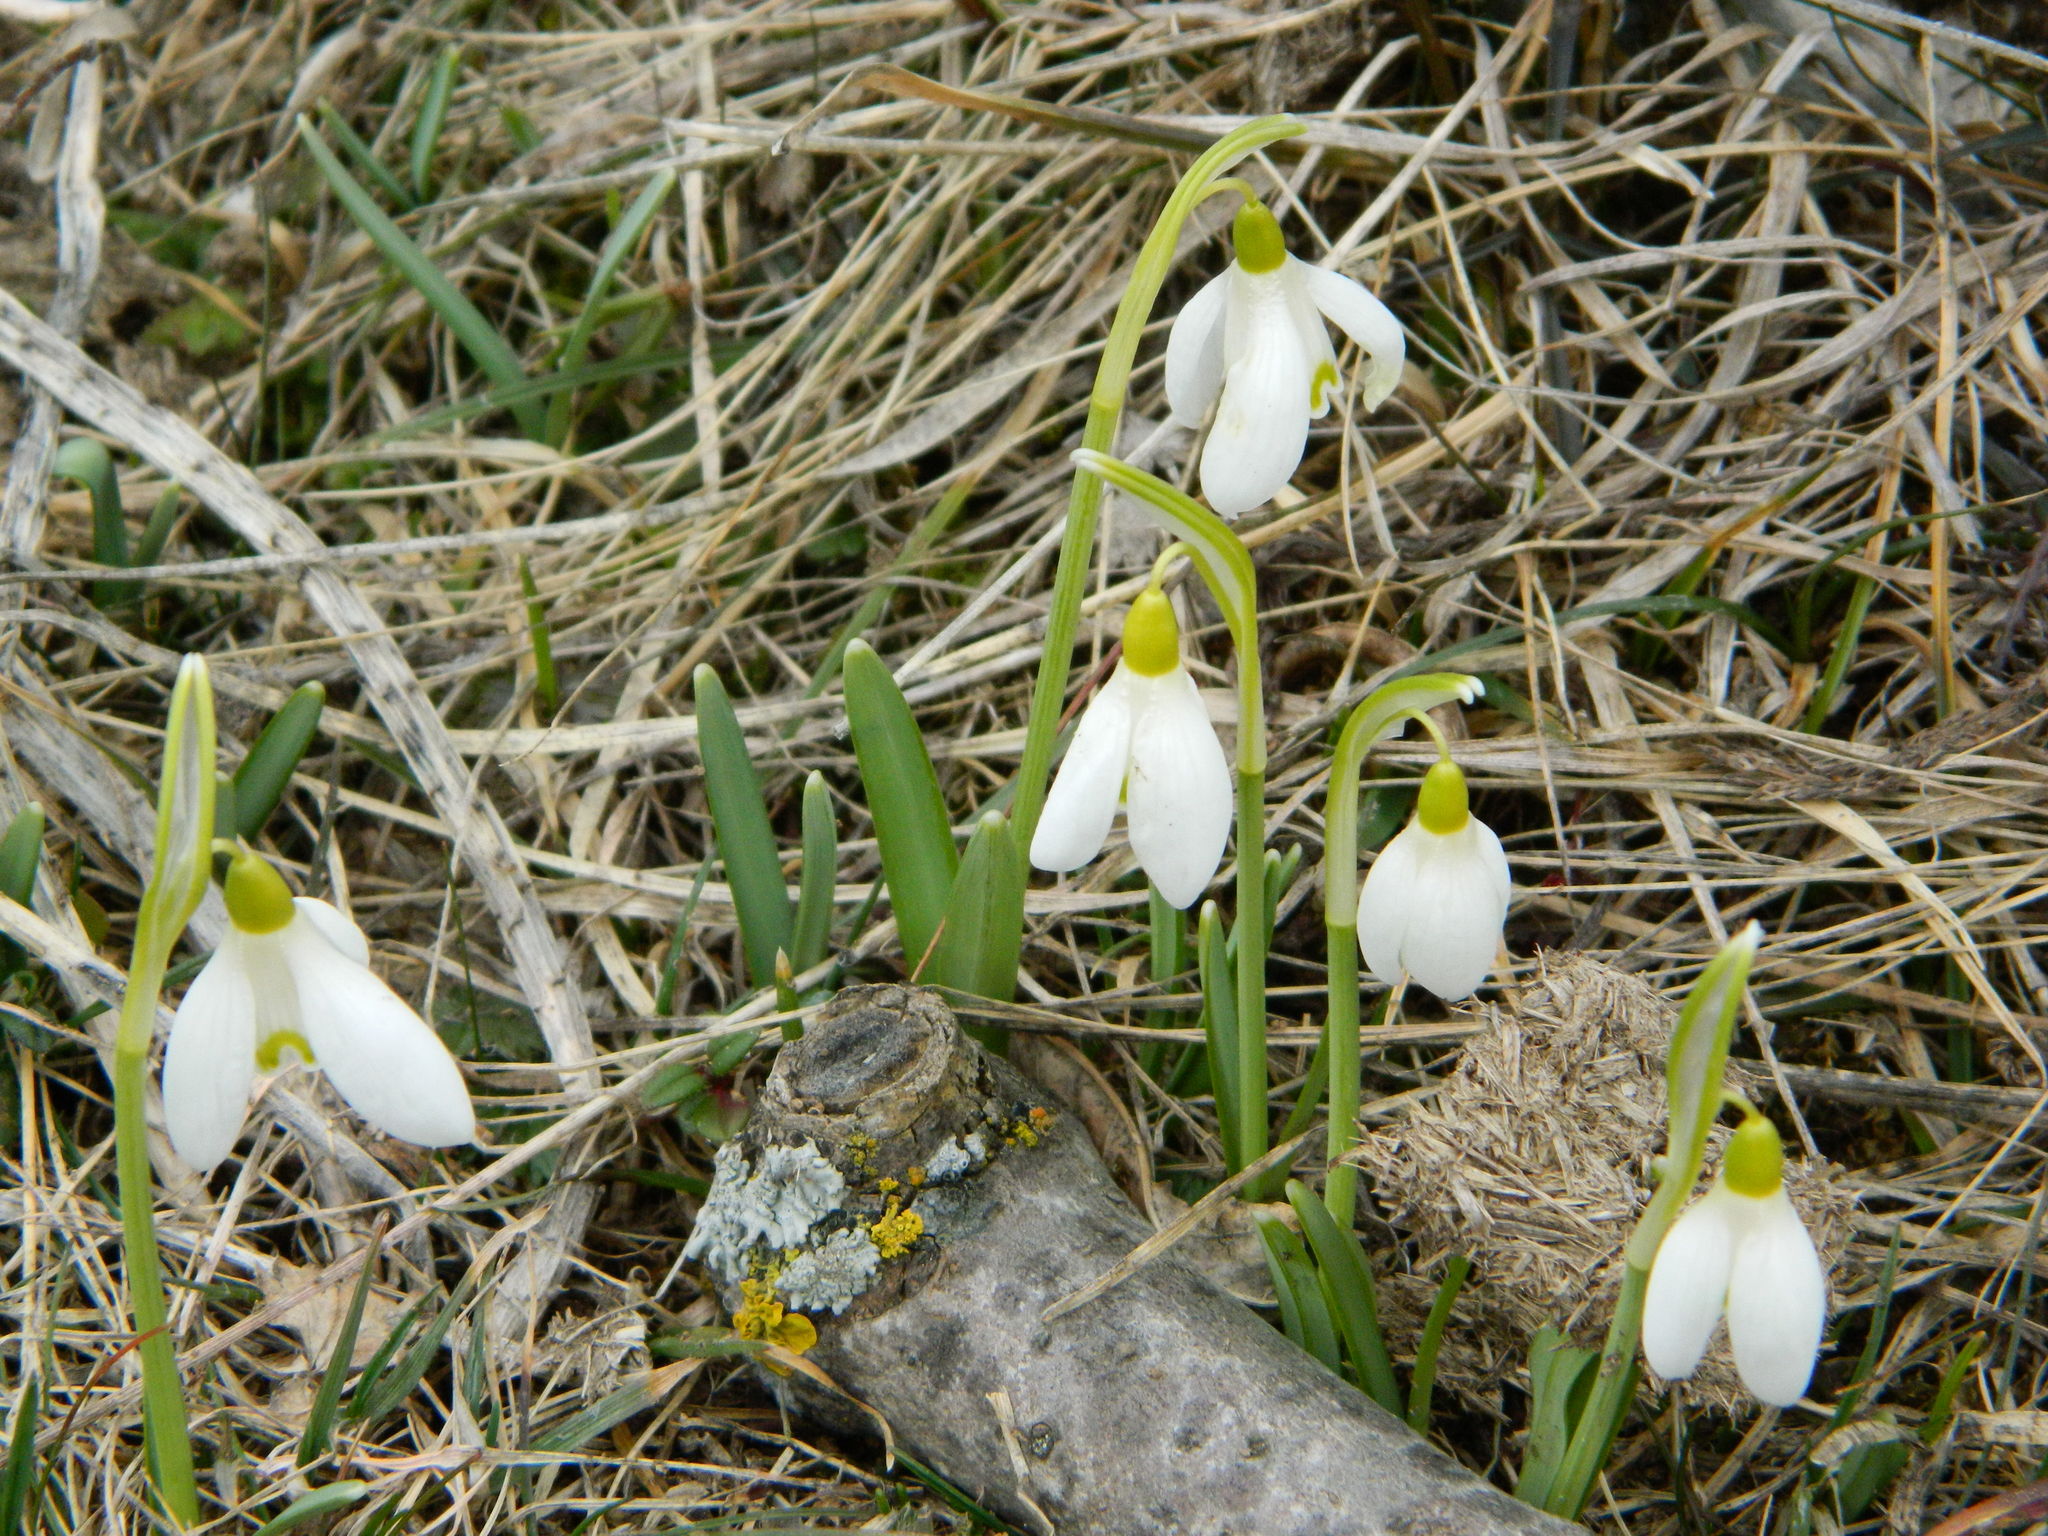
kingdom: Plantae
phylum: Tracheophyta
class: Liliopsida
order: Asparagales
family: Amaryllidaceae
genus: Galanthus
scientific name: Galanthus nivalis
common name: Snowdrop
